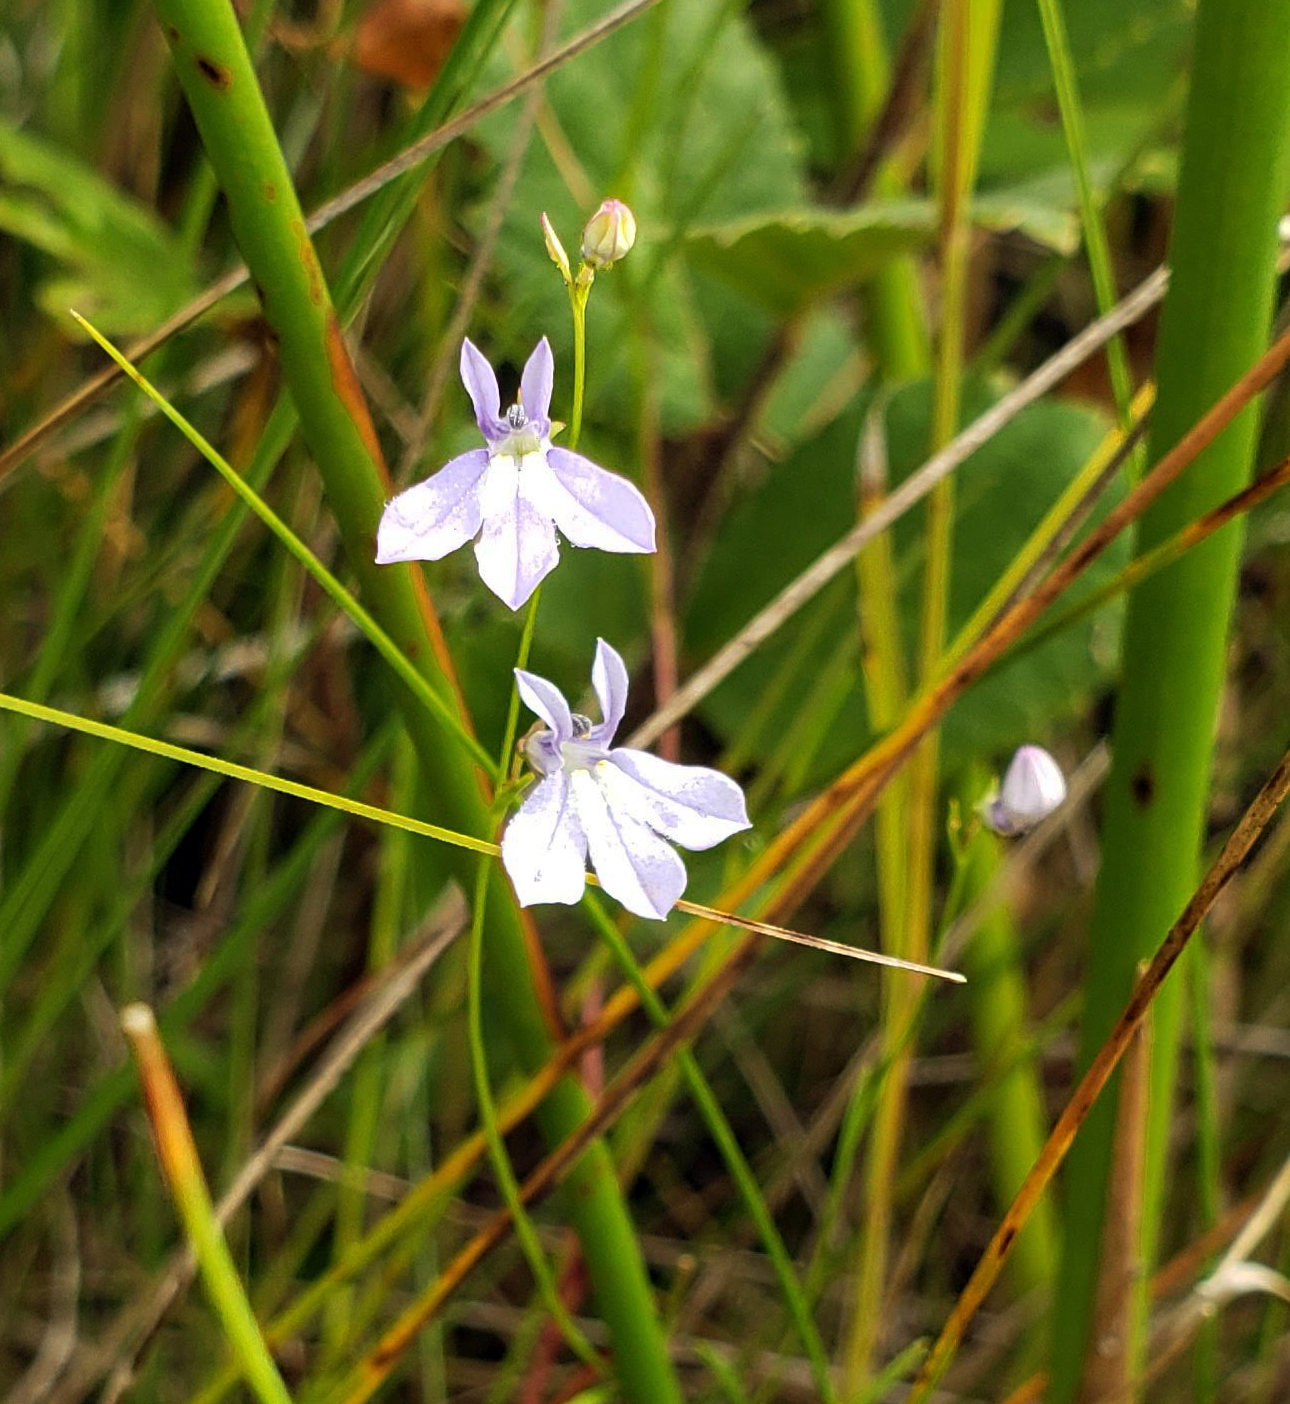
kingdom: Plantae
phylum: Tracheophyta
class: Magnoliopsida
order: Asterales
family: Campanulaceae
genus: Lobelia
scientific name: Lobelia kalmii
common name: Kalm's lobelia
